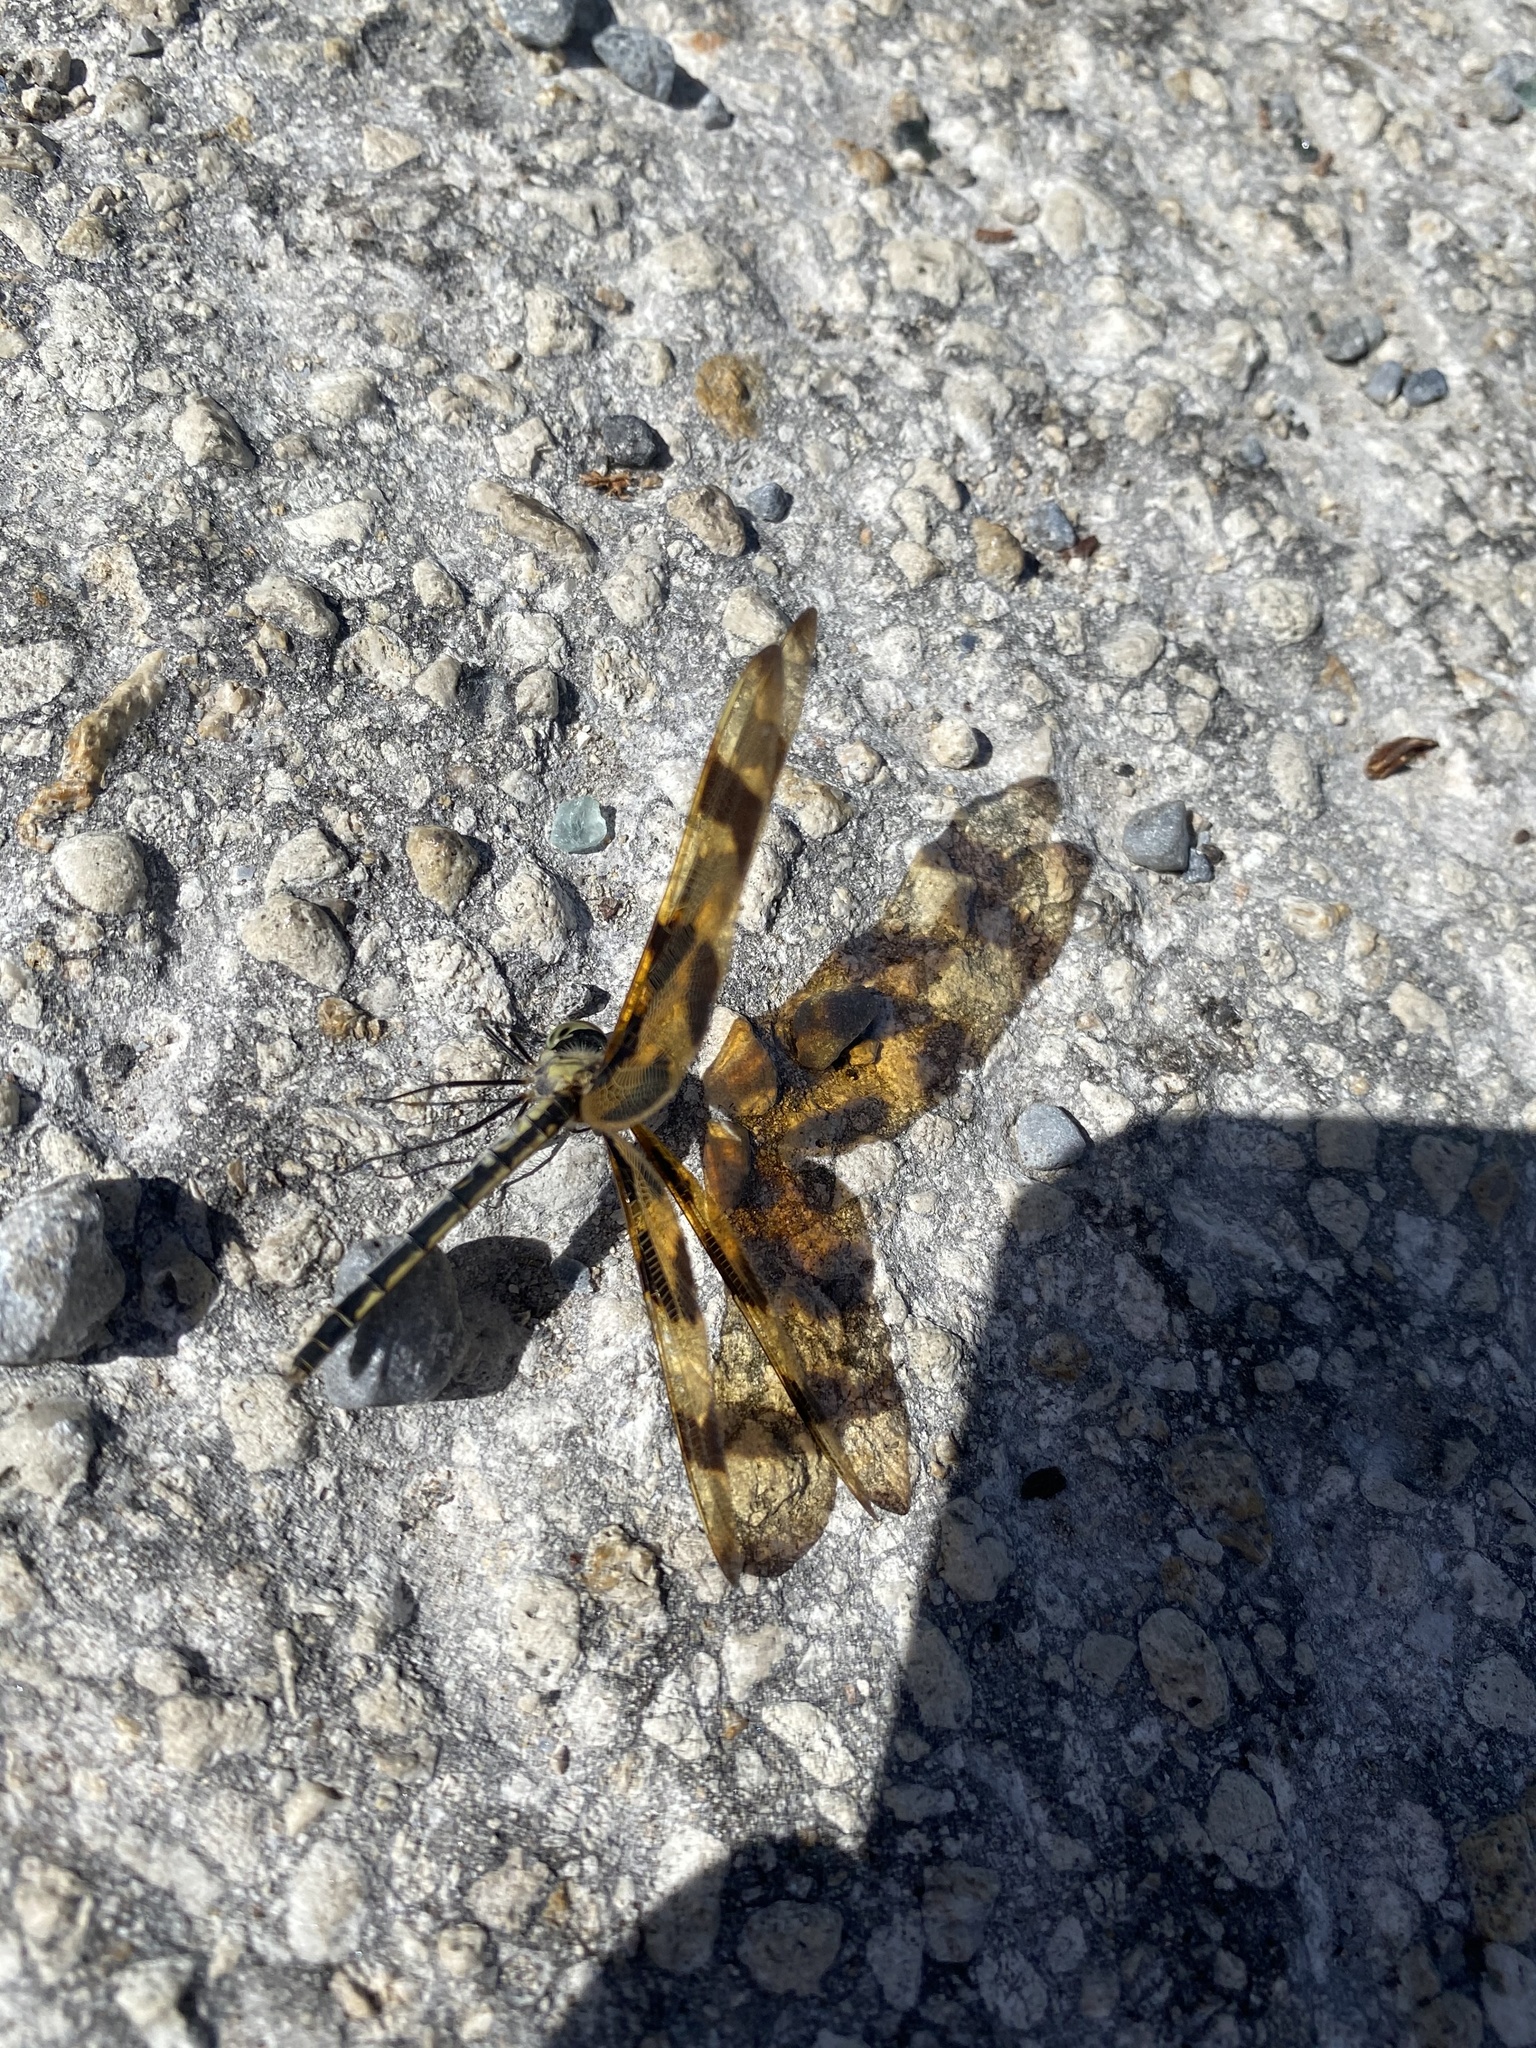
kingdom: Animalia
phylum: Arthropoda
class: Insecta
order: Odonata
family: Libellulidae
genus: Celithemis
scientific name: Celithemis eponina
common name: Halloween pennant
